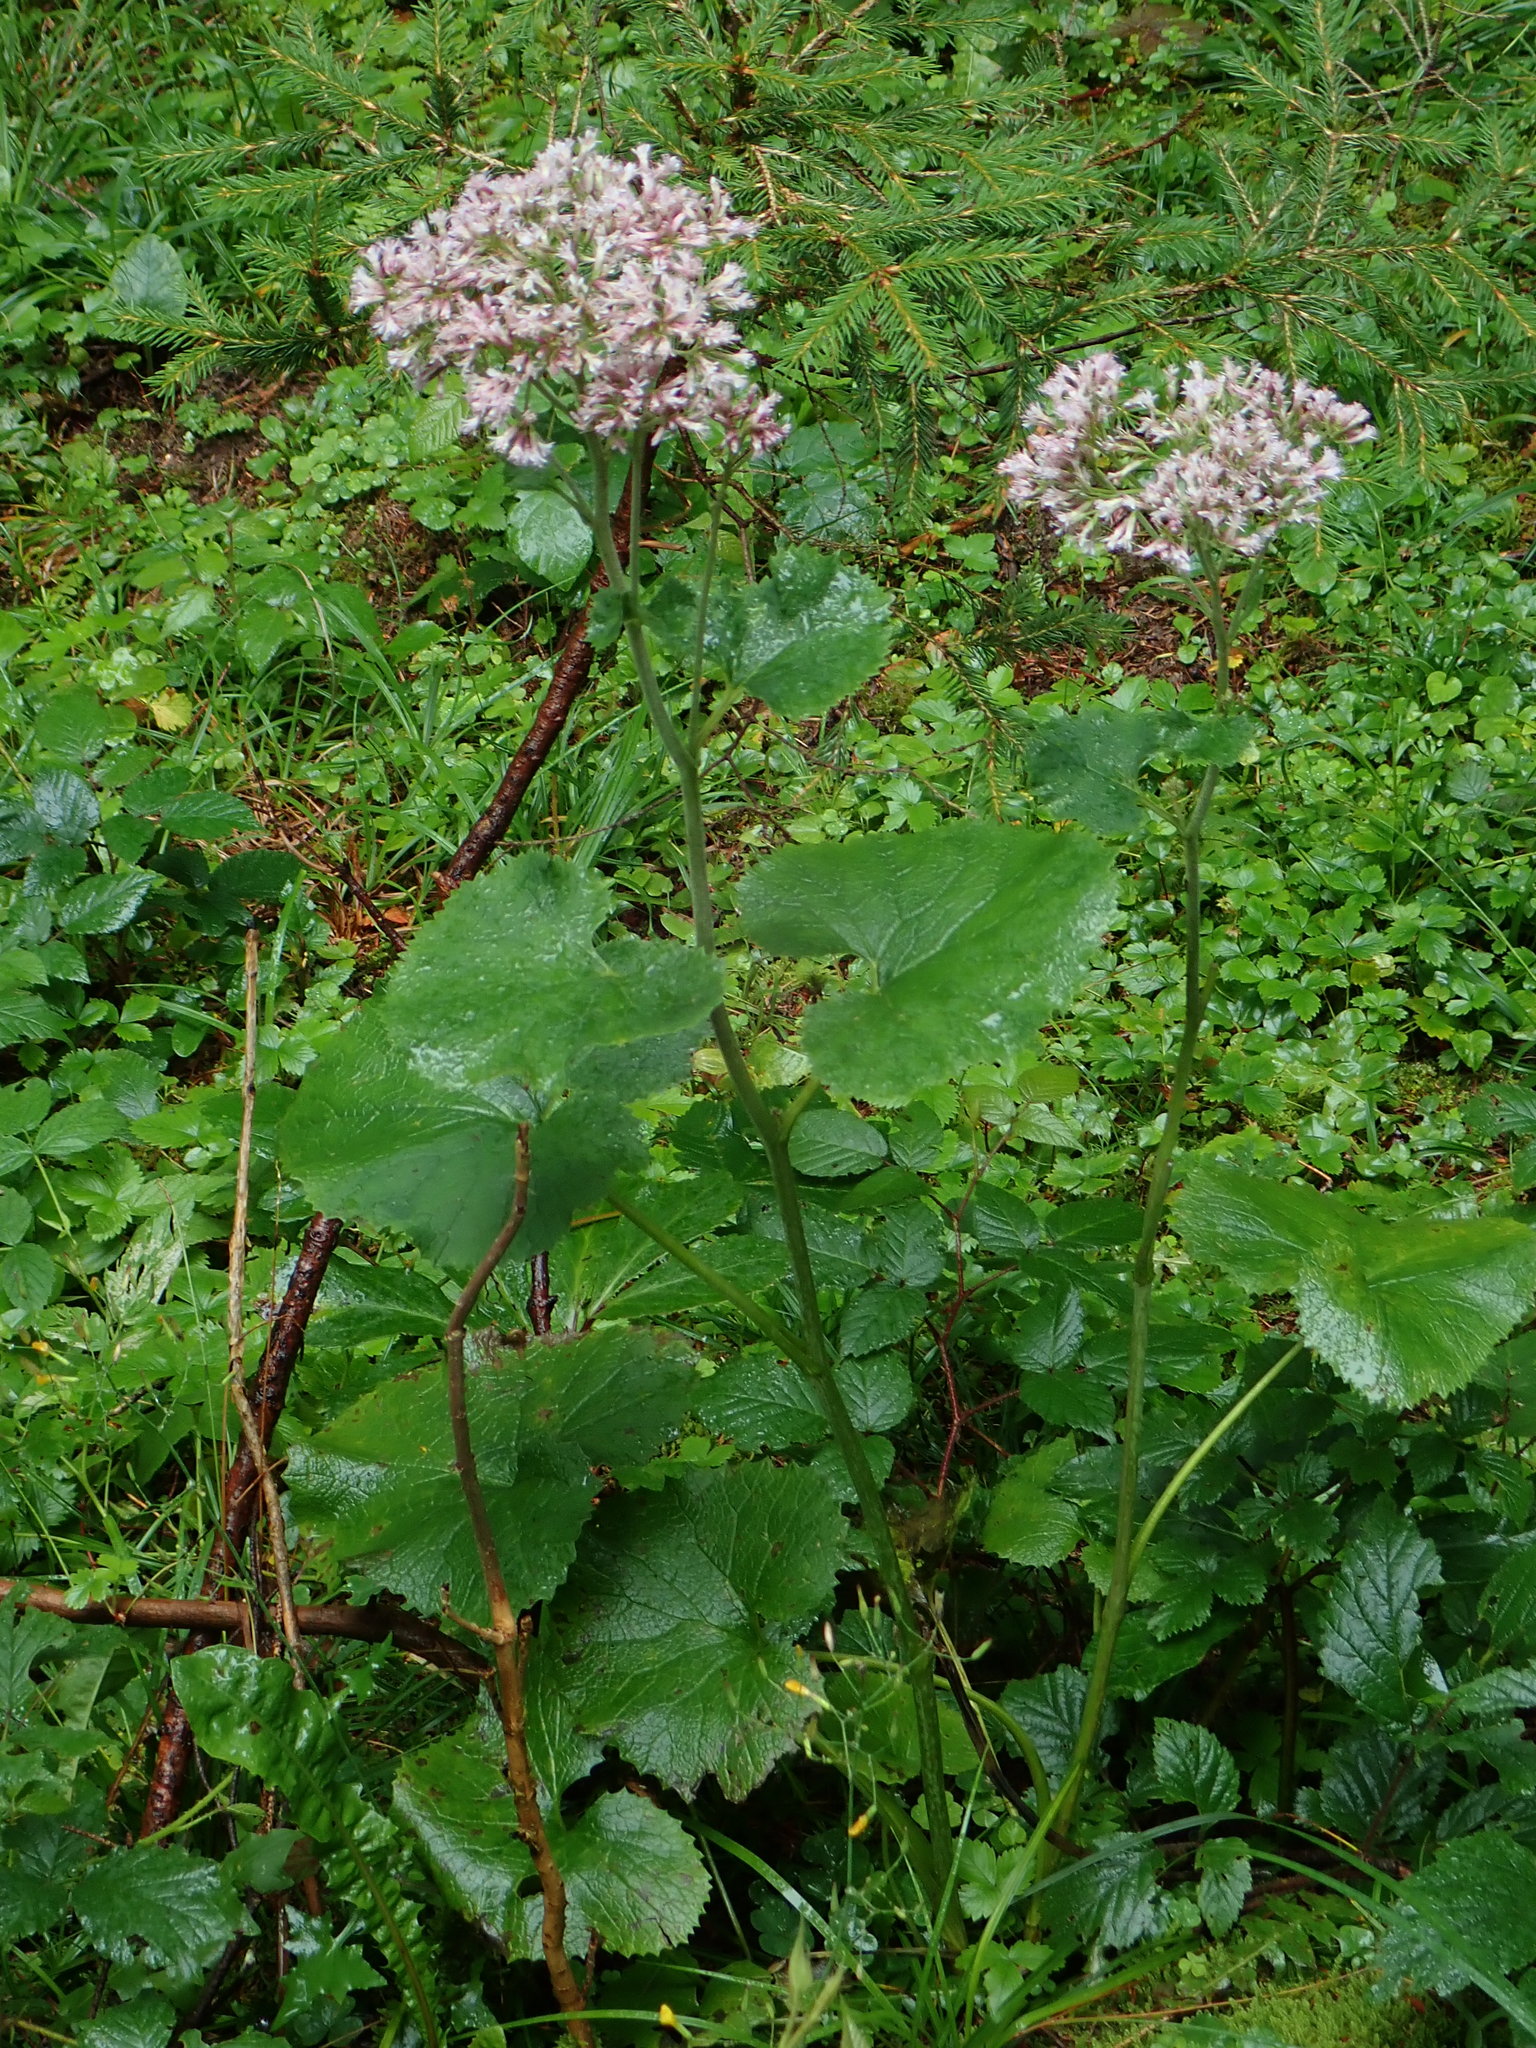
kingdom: Plantae
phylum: Tracheophyta
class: Magnoliopsida
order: Asterales
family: Asteraceae
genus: Adenostyles
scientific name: Adenostyles alpina
